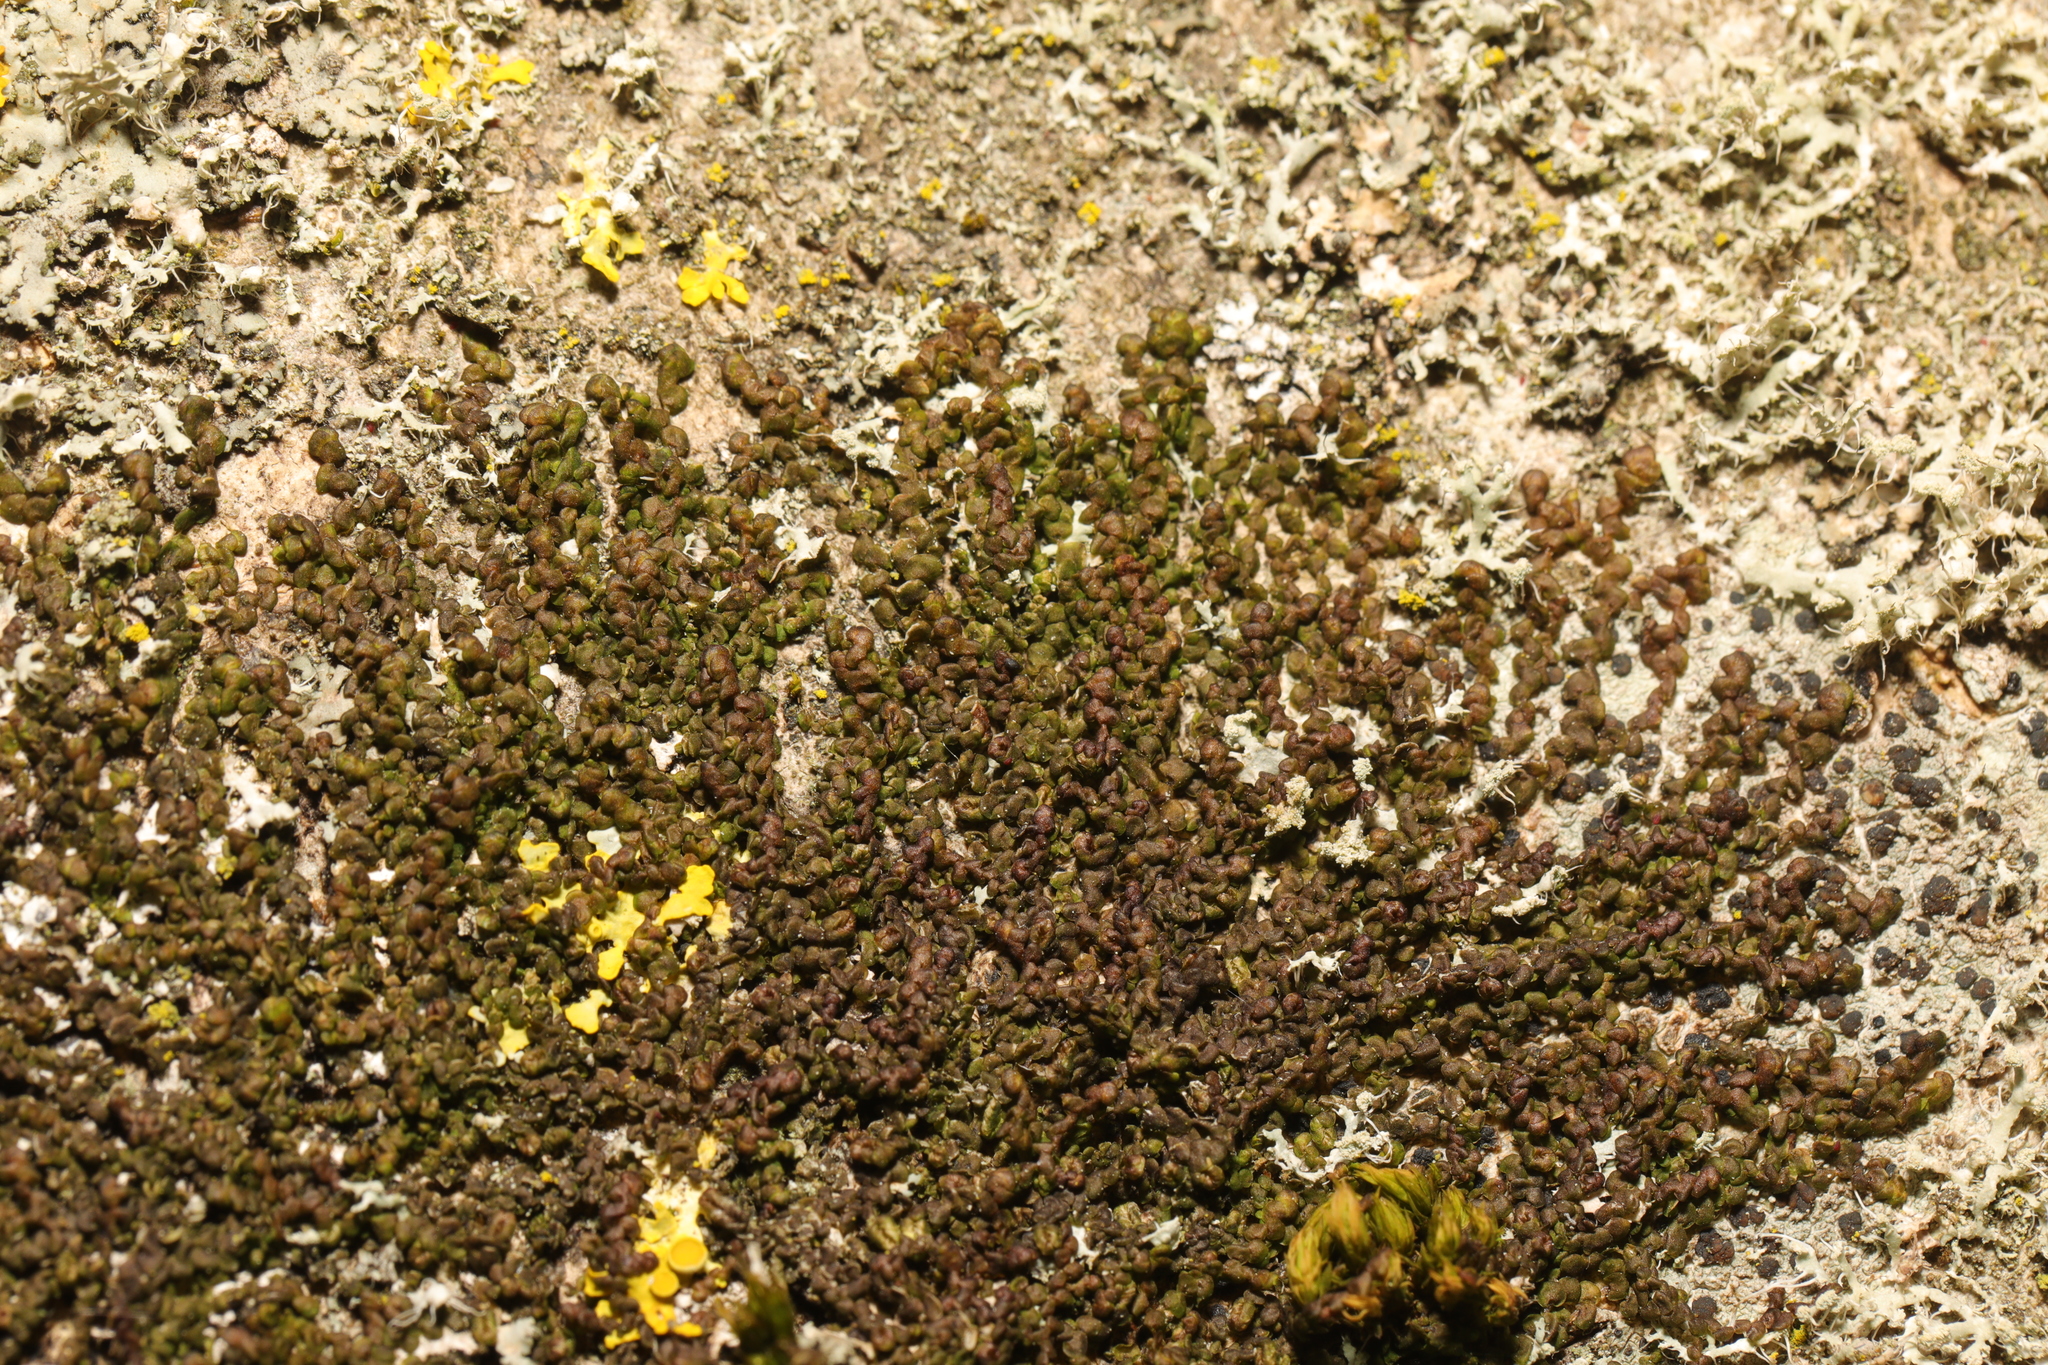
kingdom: Plantae
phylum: Marchantiophyta
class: Jungermanniopsida
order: Porellales
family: Frullaniaceae
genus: Frullania
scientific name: Frullania dilatata
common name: Dilated scalewort
